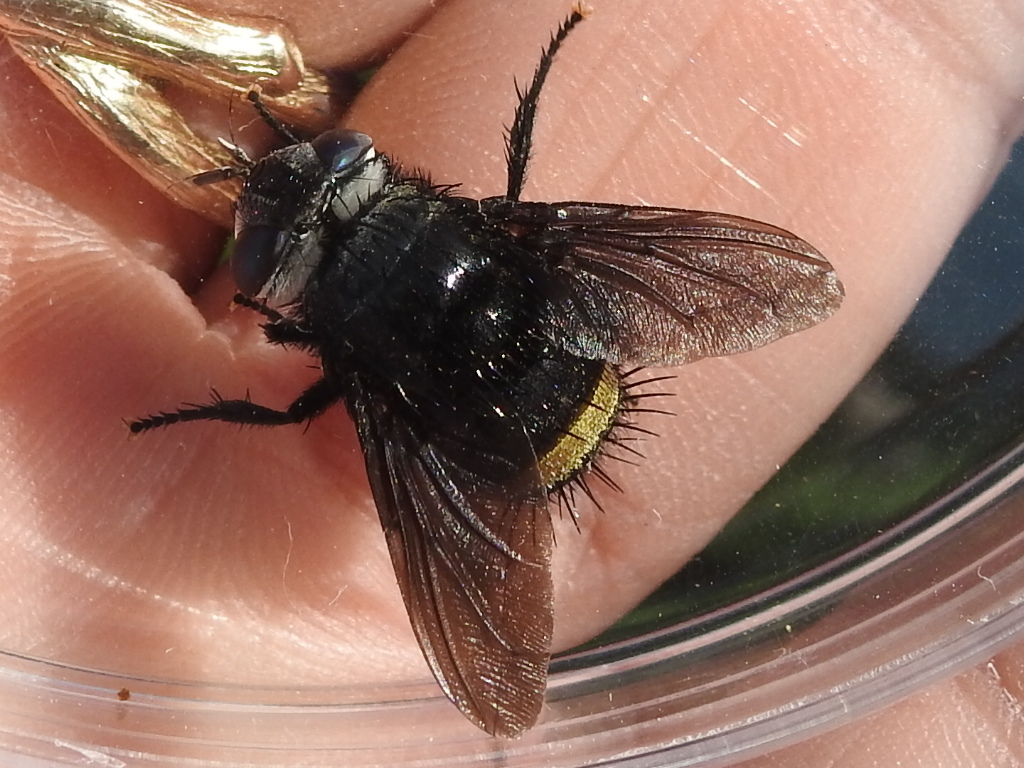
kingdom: Animalia
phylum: Arthropoda
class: Insecta
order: Diptera
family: Tachinidae
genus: Belvosia
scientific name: Belvosia borealis
